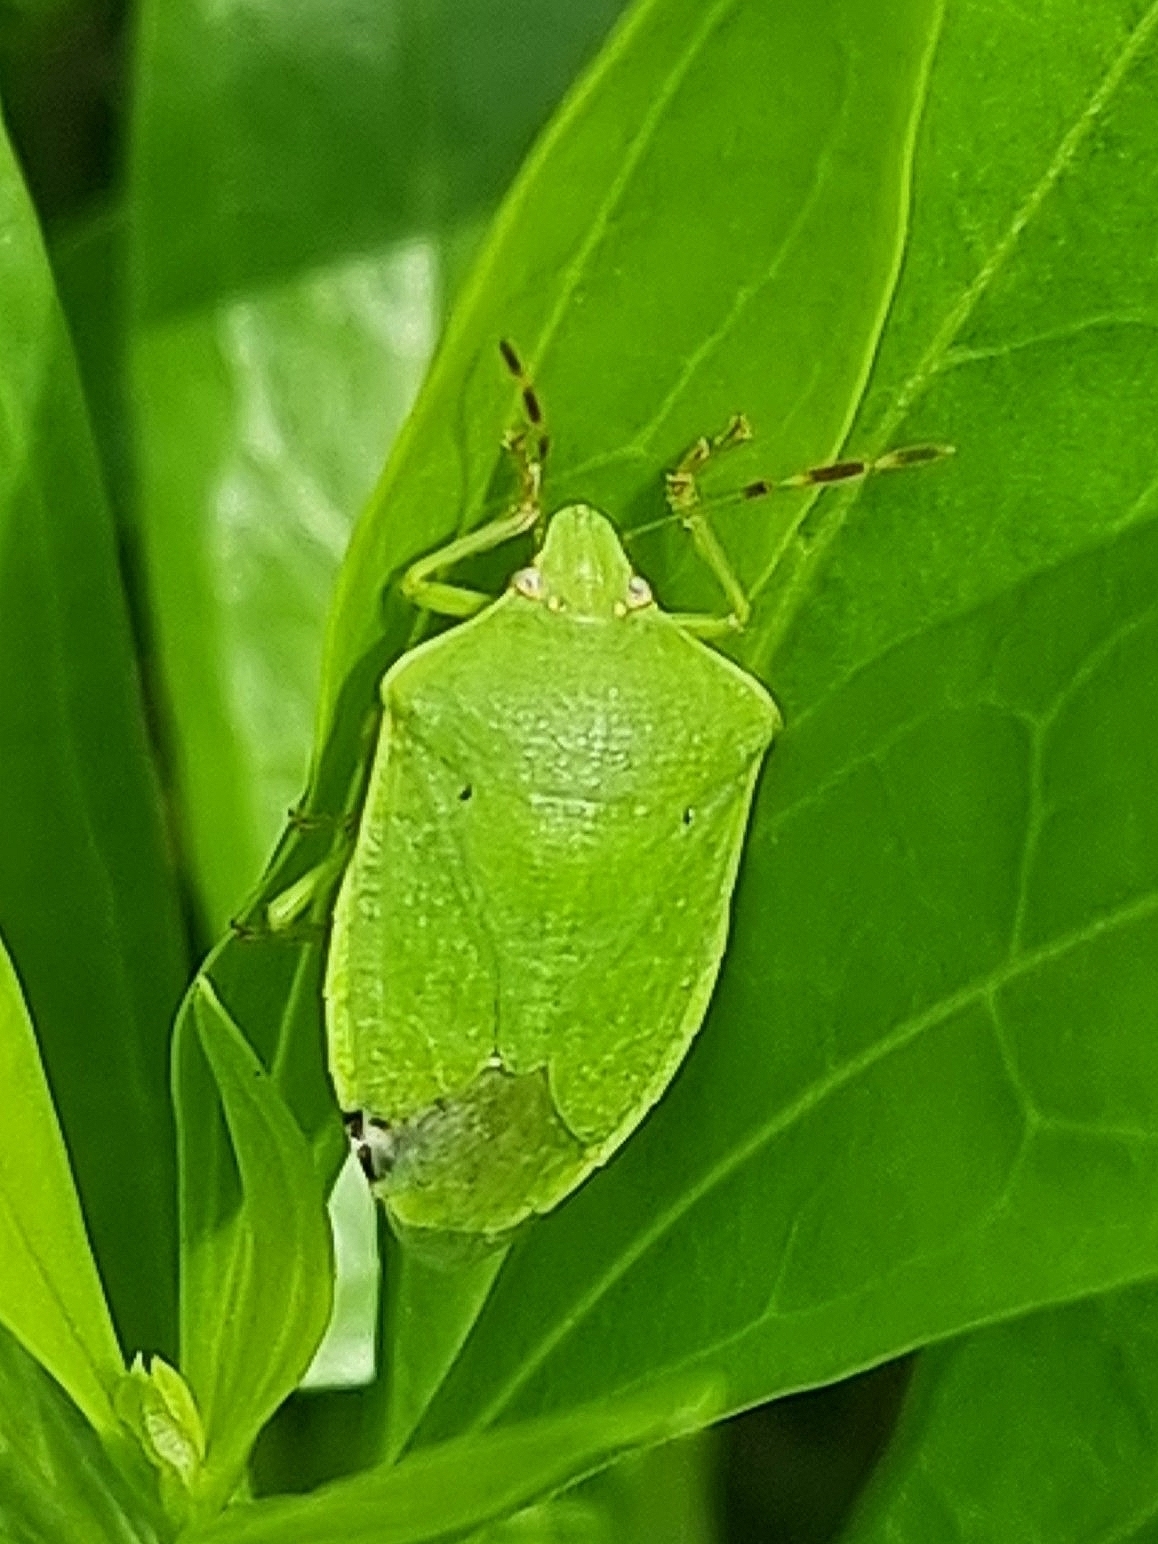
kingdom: Animalia
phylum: Arthropoda
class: Insecta
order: Hemiptera
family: Pentatomidae
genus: Nezara
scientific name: Nezara viridula
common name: Southern green stink bug
